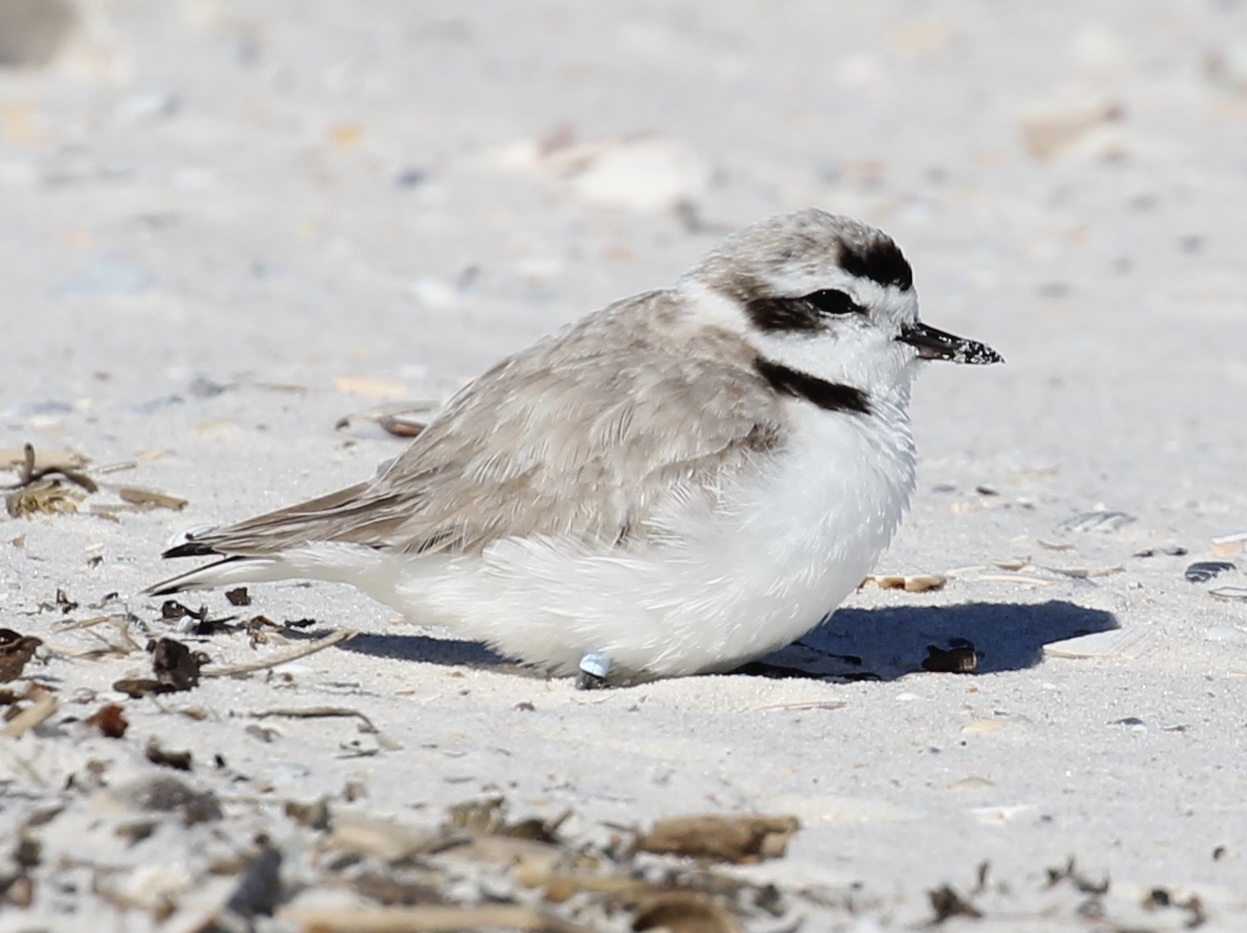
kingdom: Animalia
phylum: Chordata
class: Aves
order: Charadriiformes
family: Charadriidae
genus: Anarhynchus
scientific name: Anarhynchus
